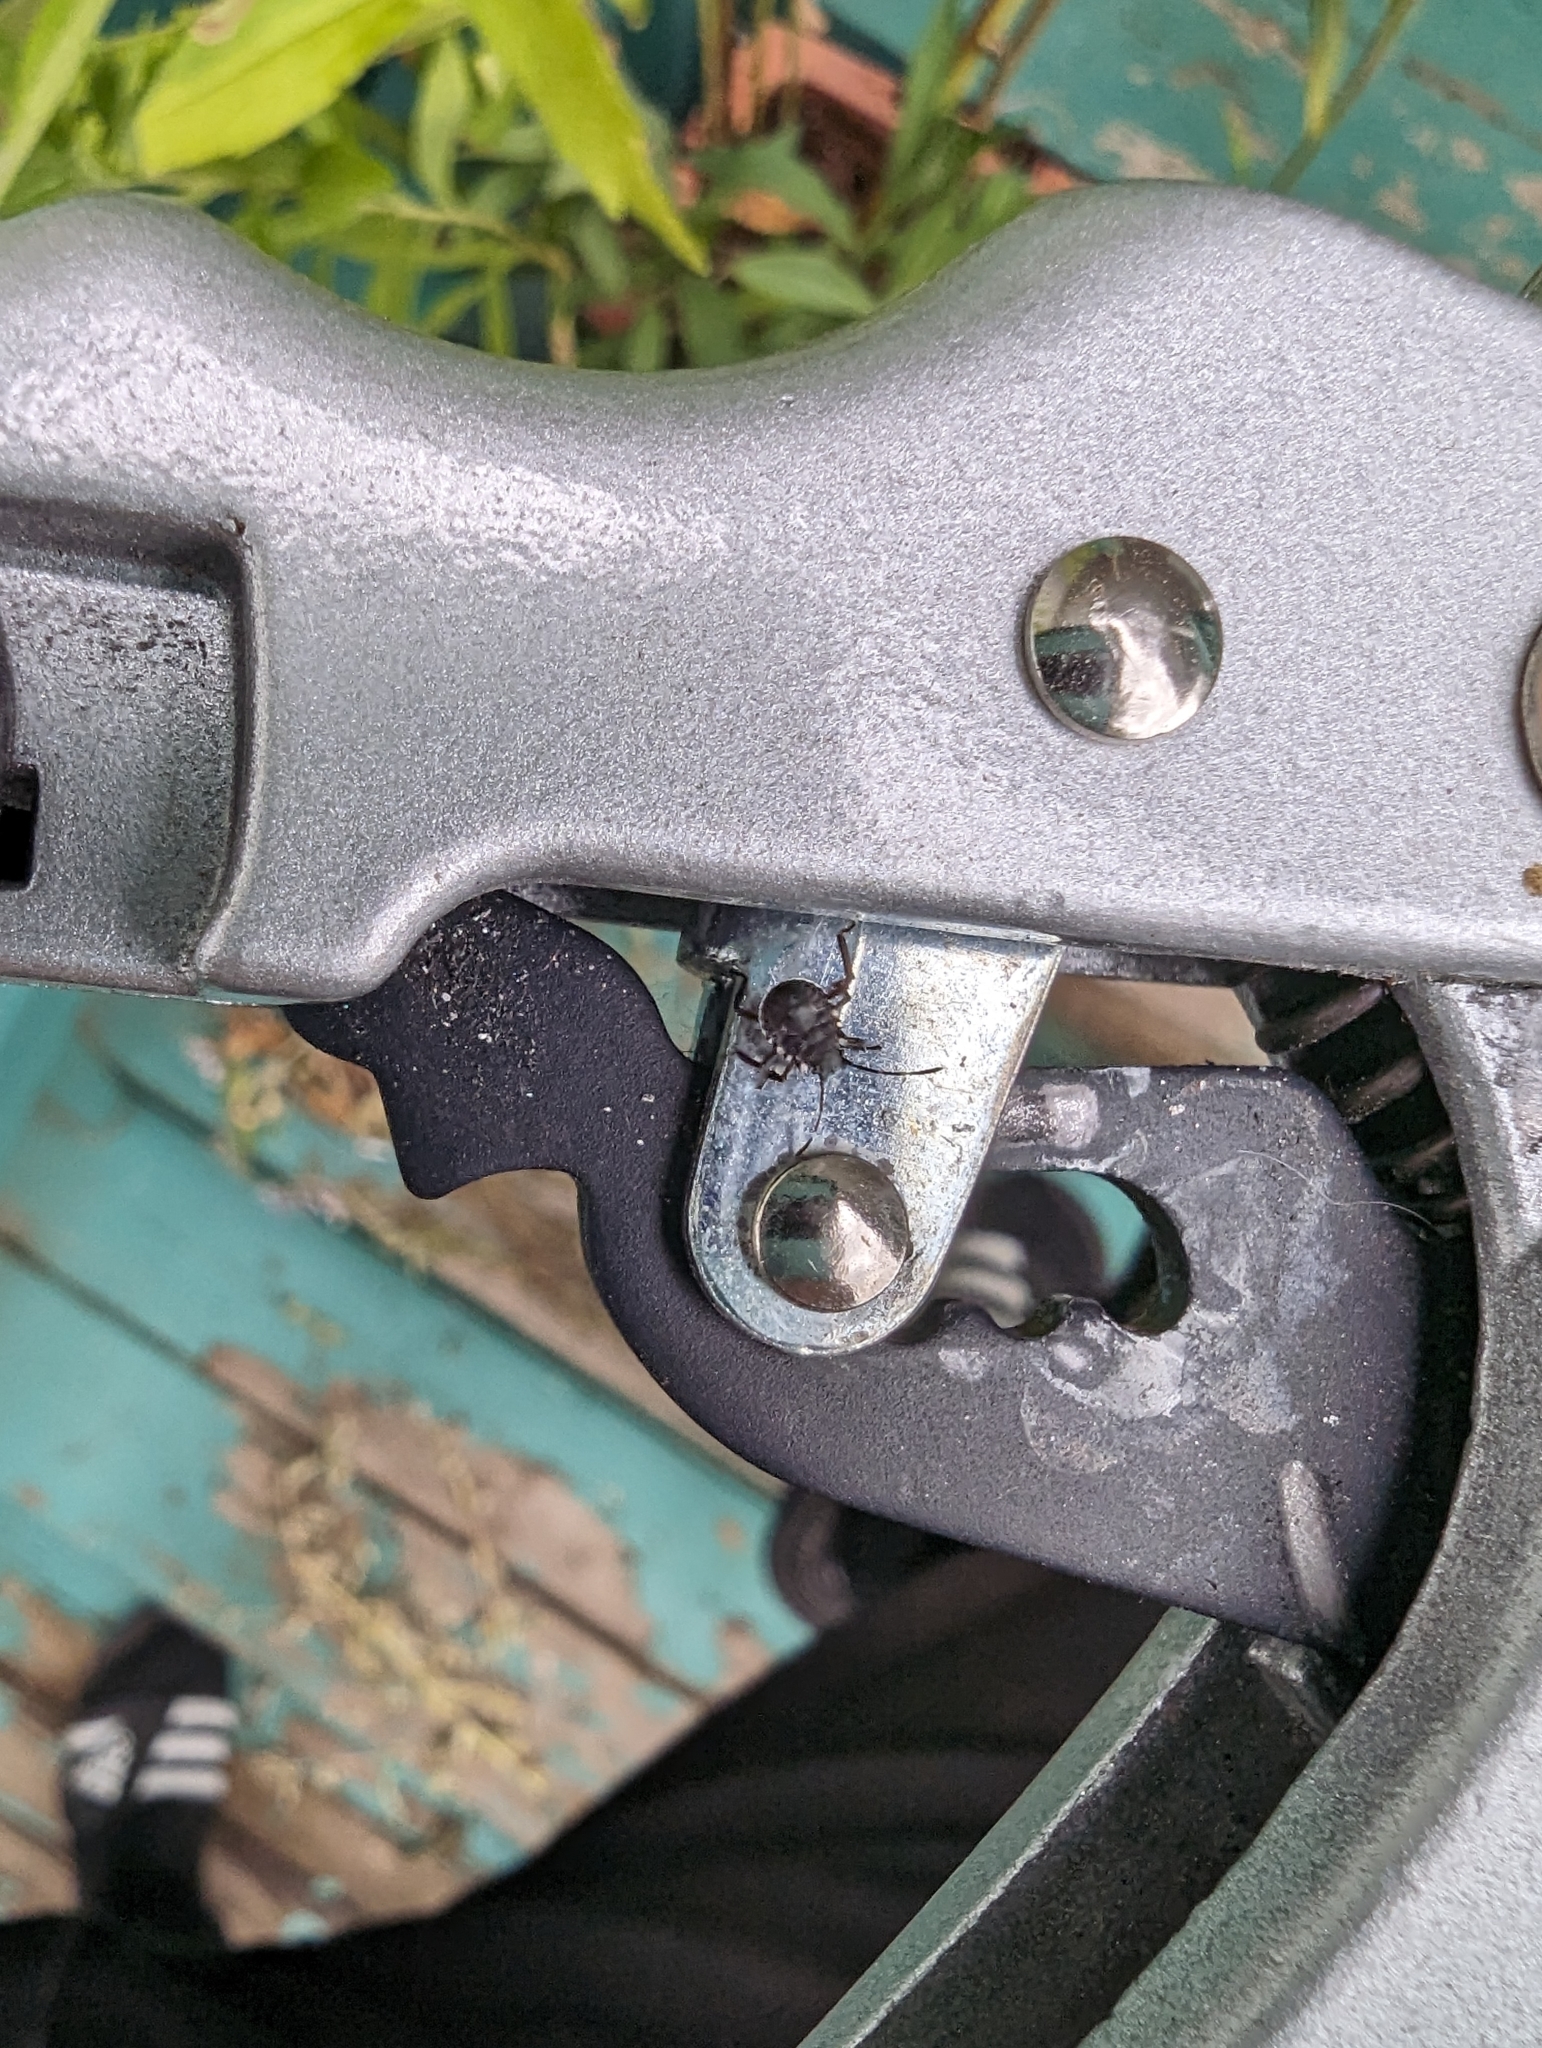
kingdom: Animalia
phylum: Arthropoda
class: Insecta
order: Hemiptera
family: Pentatomidae
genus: Halyomorpha
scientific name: Halyomorpha halys
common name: Brown marmorated stink bug
